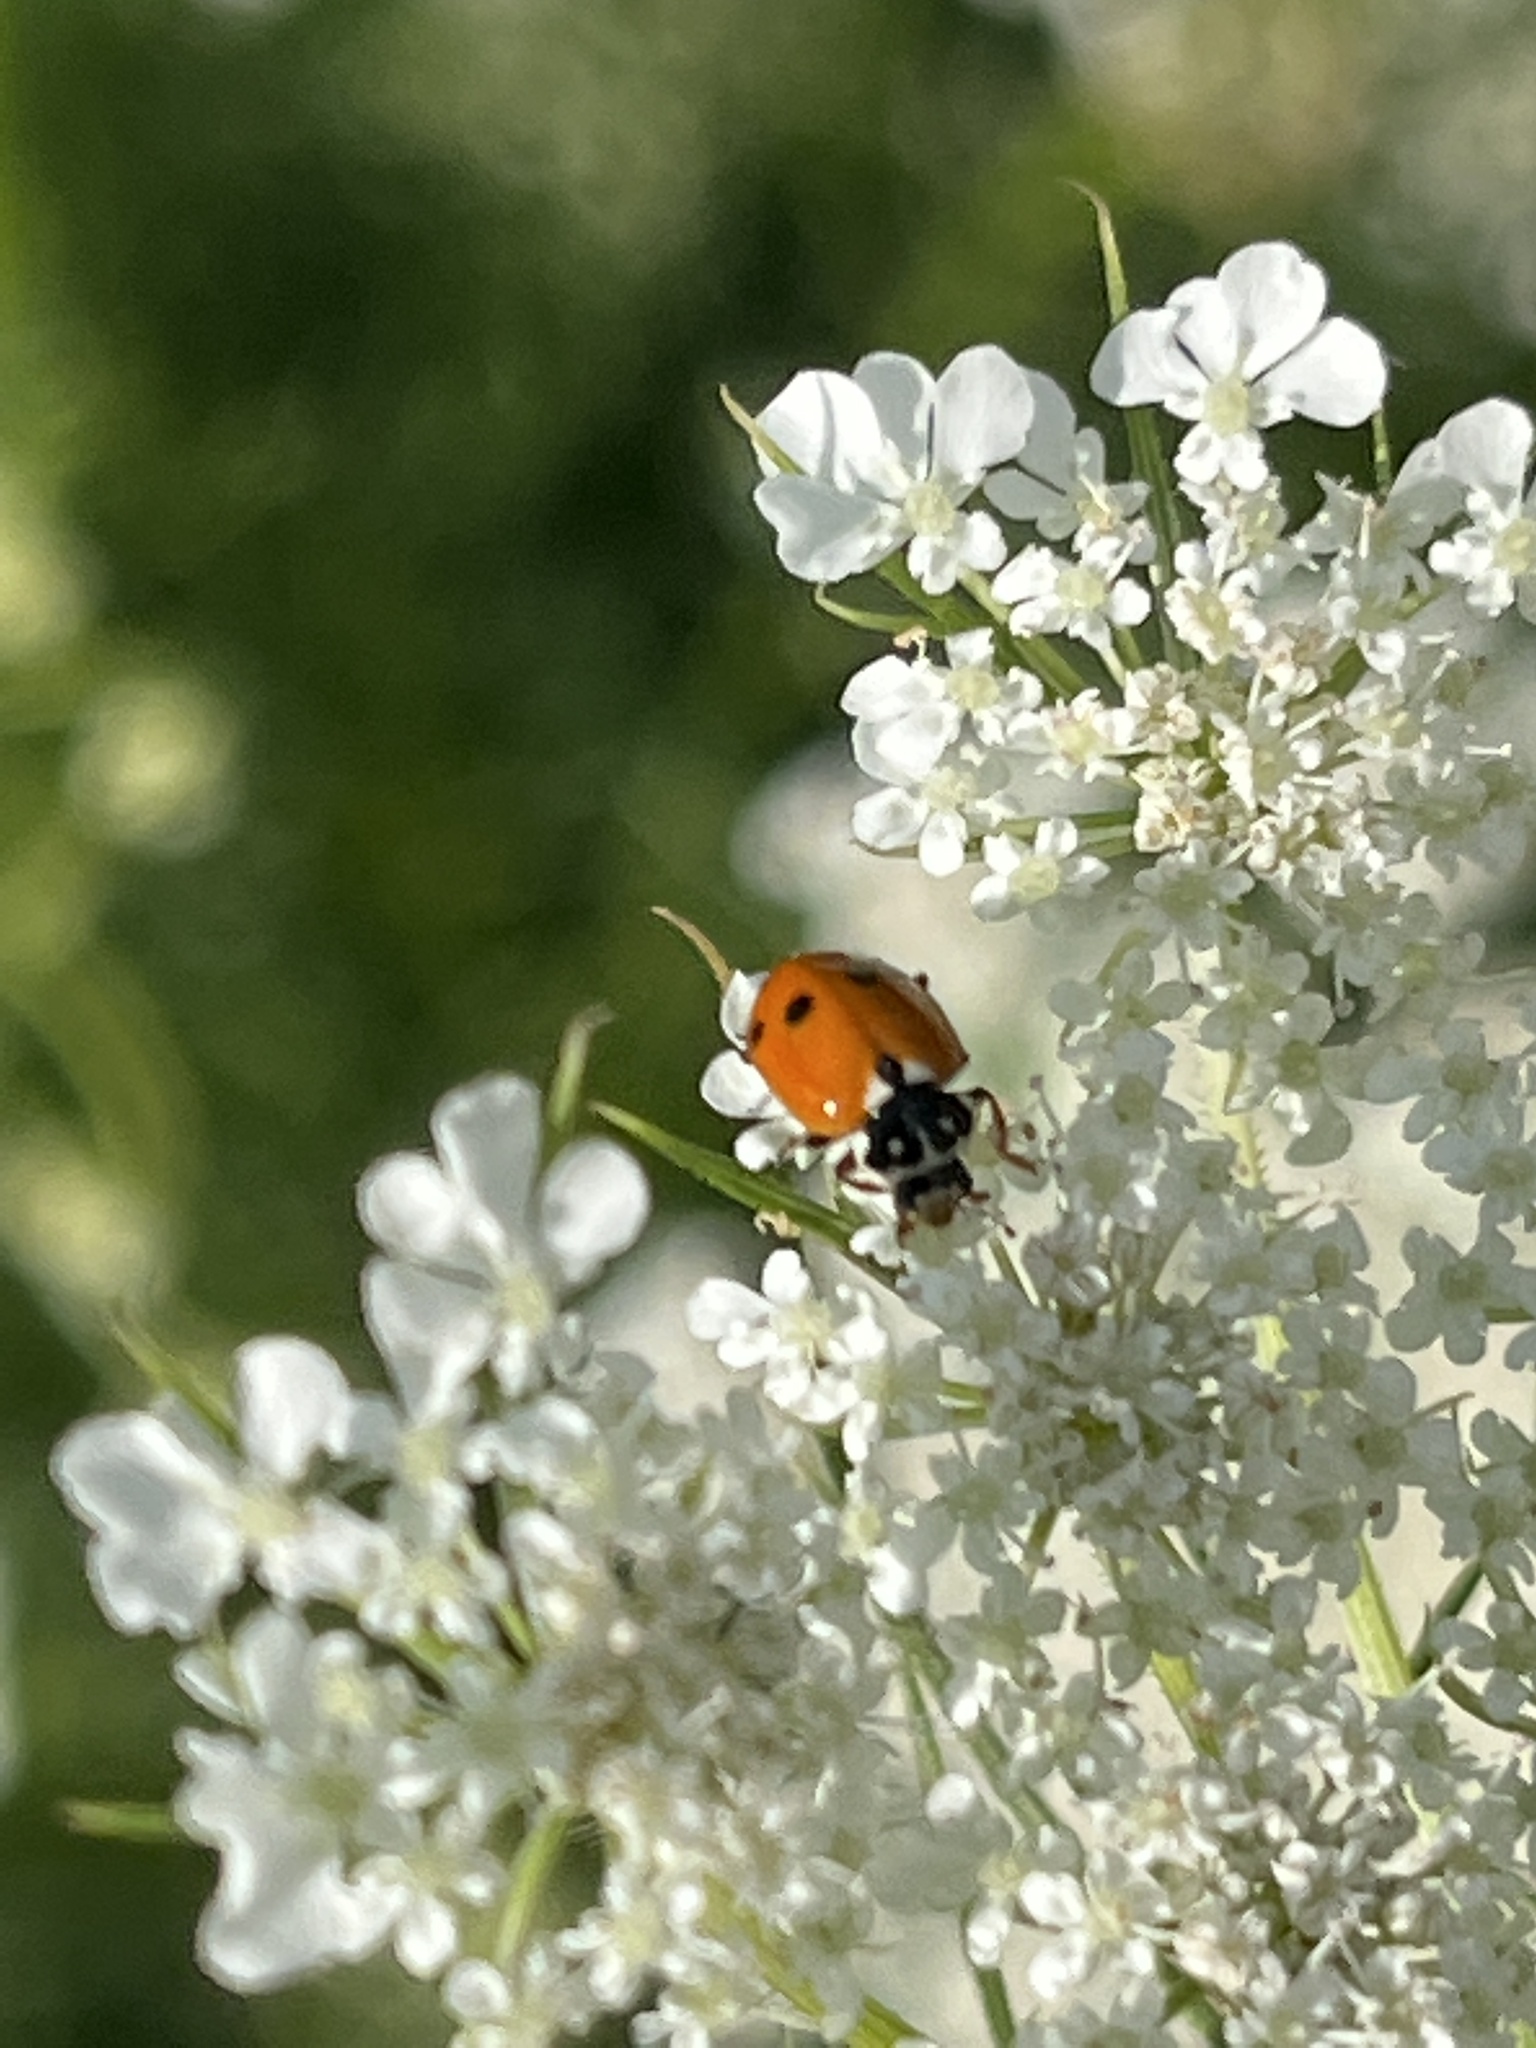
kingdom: Animalia
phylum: Arthropoda
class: Insecta
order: Coleoptera
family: Coccinellidae
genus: Hippodamia
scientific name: Hippodamia variegata
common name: Ladybird beetle
